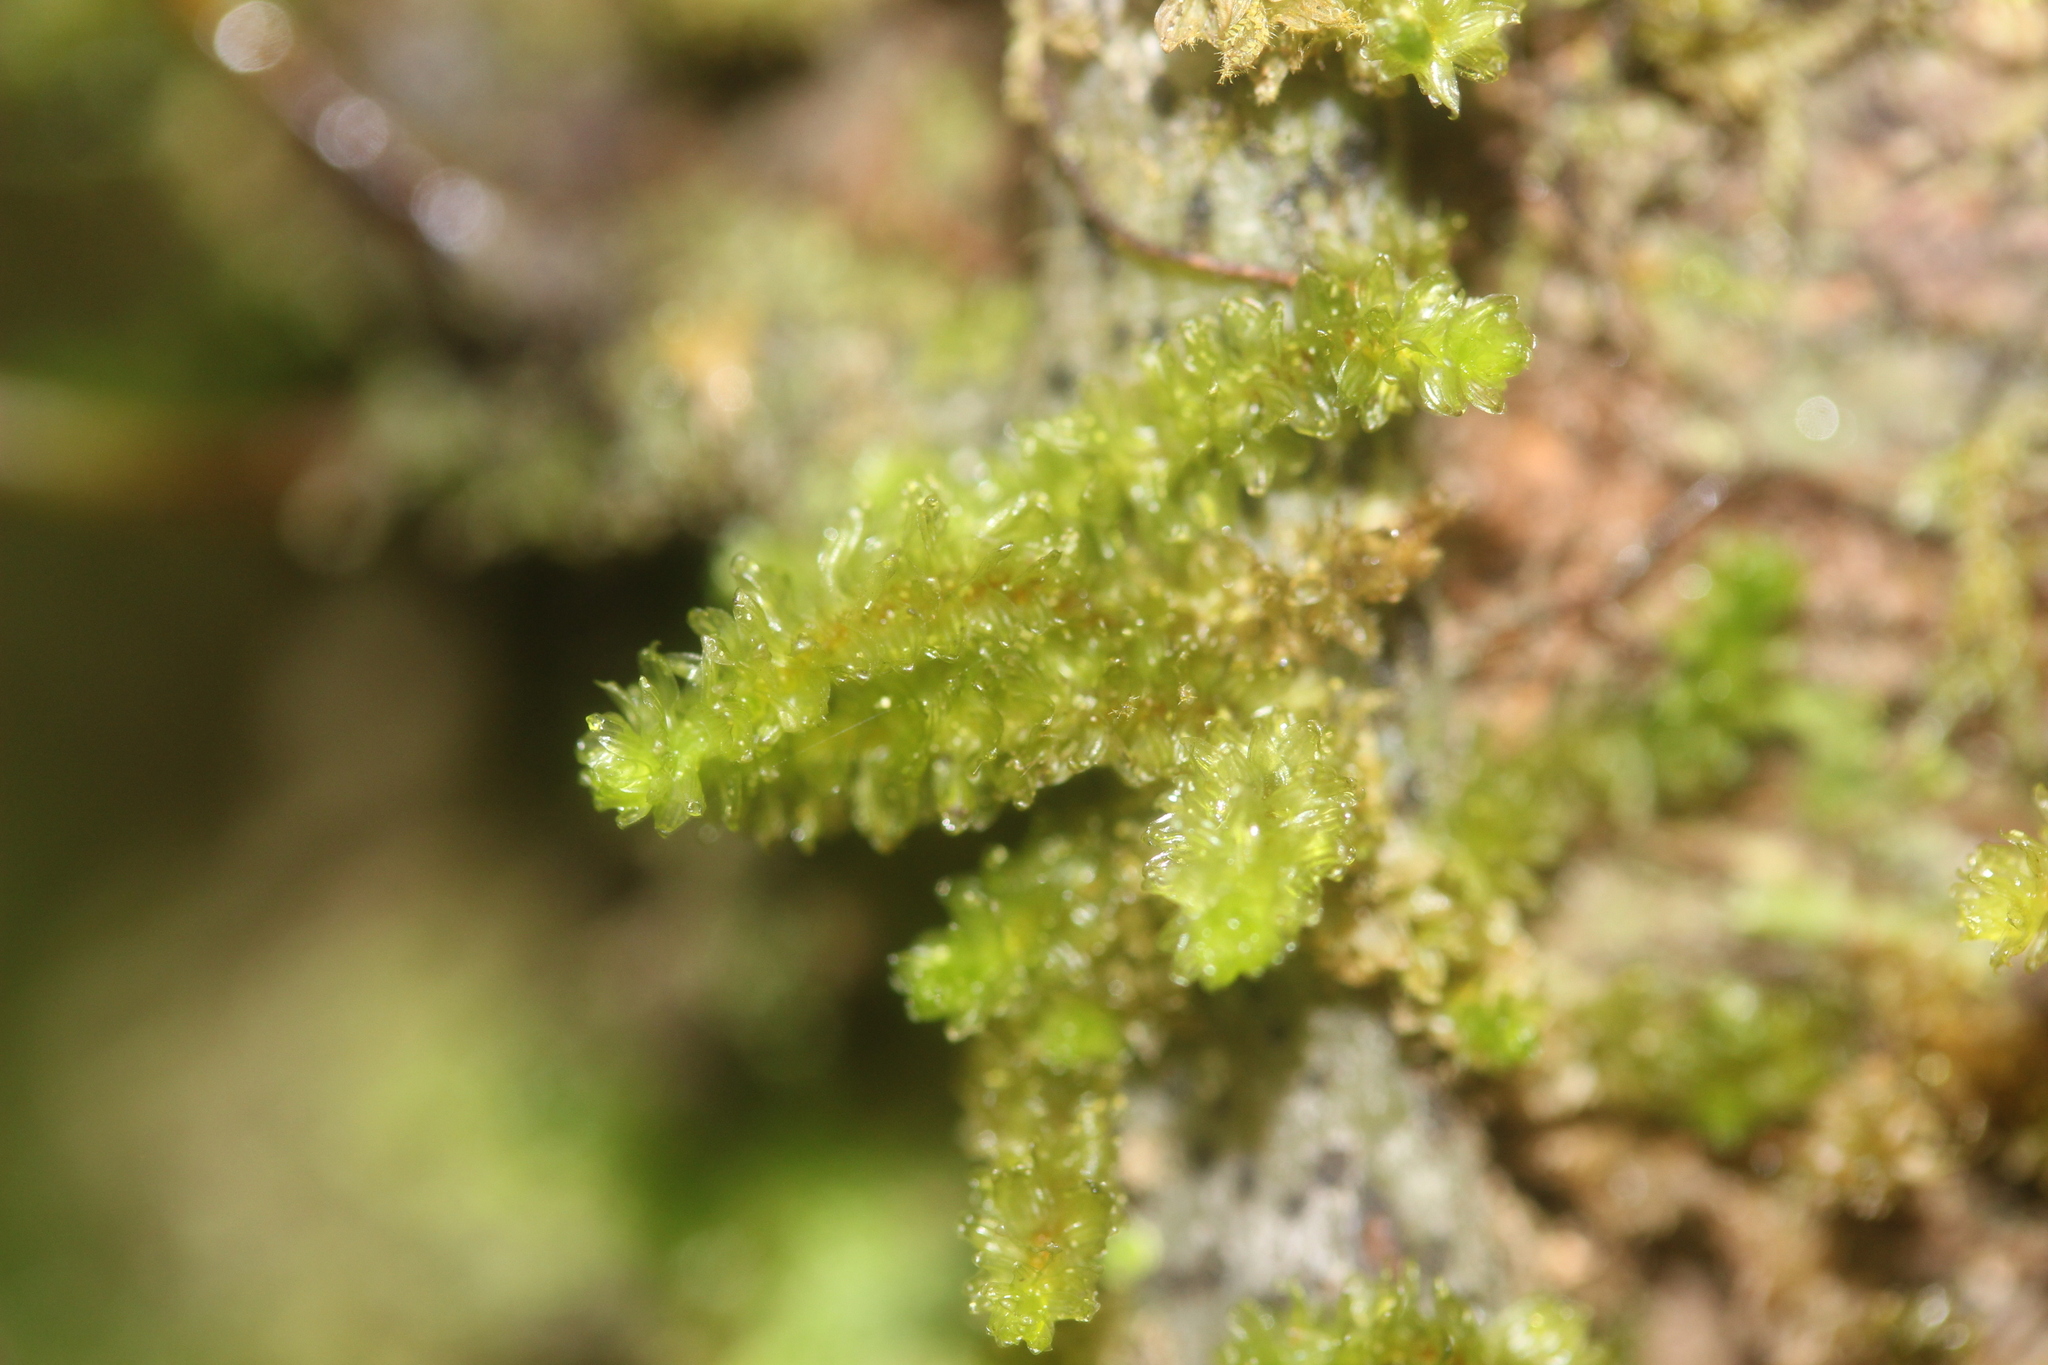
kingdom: Plantae
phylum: Bryophyta
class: Bryopsida
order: Ptychomniales
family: Ptychomniaceae
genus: Cladomnion
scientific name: Cladomnion ericoides
